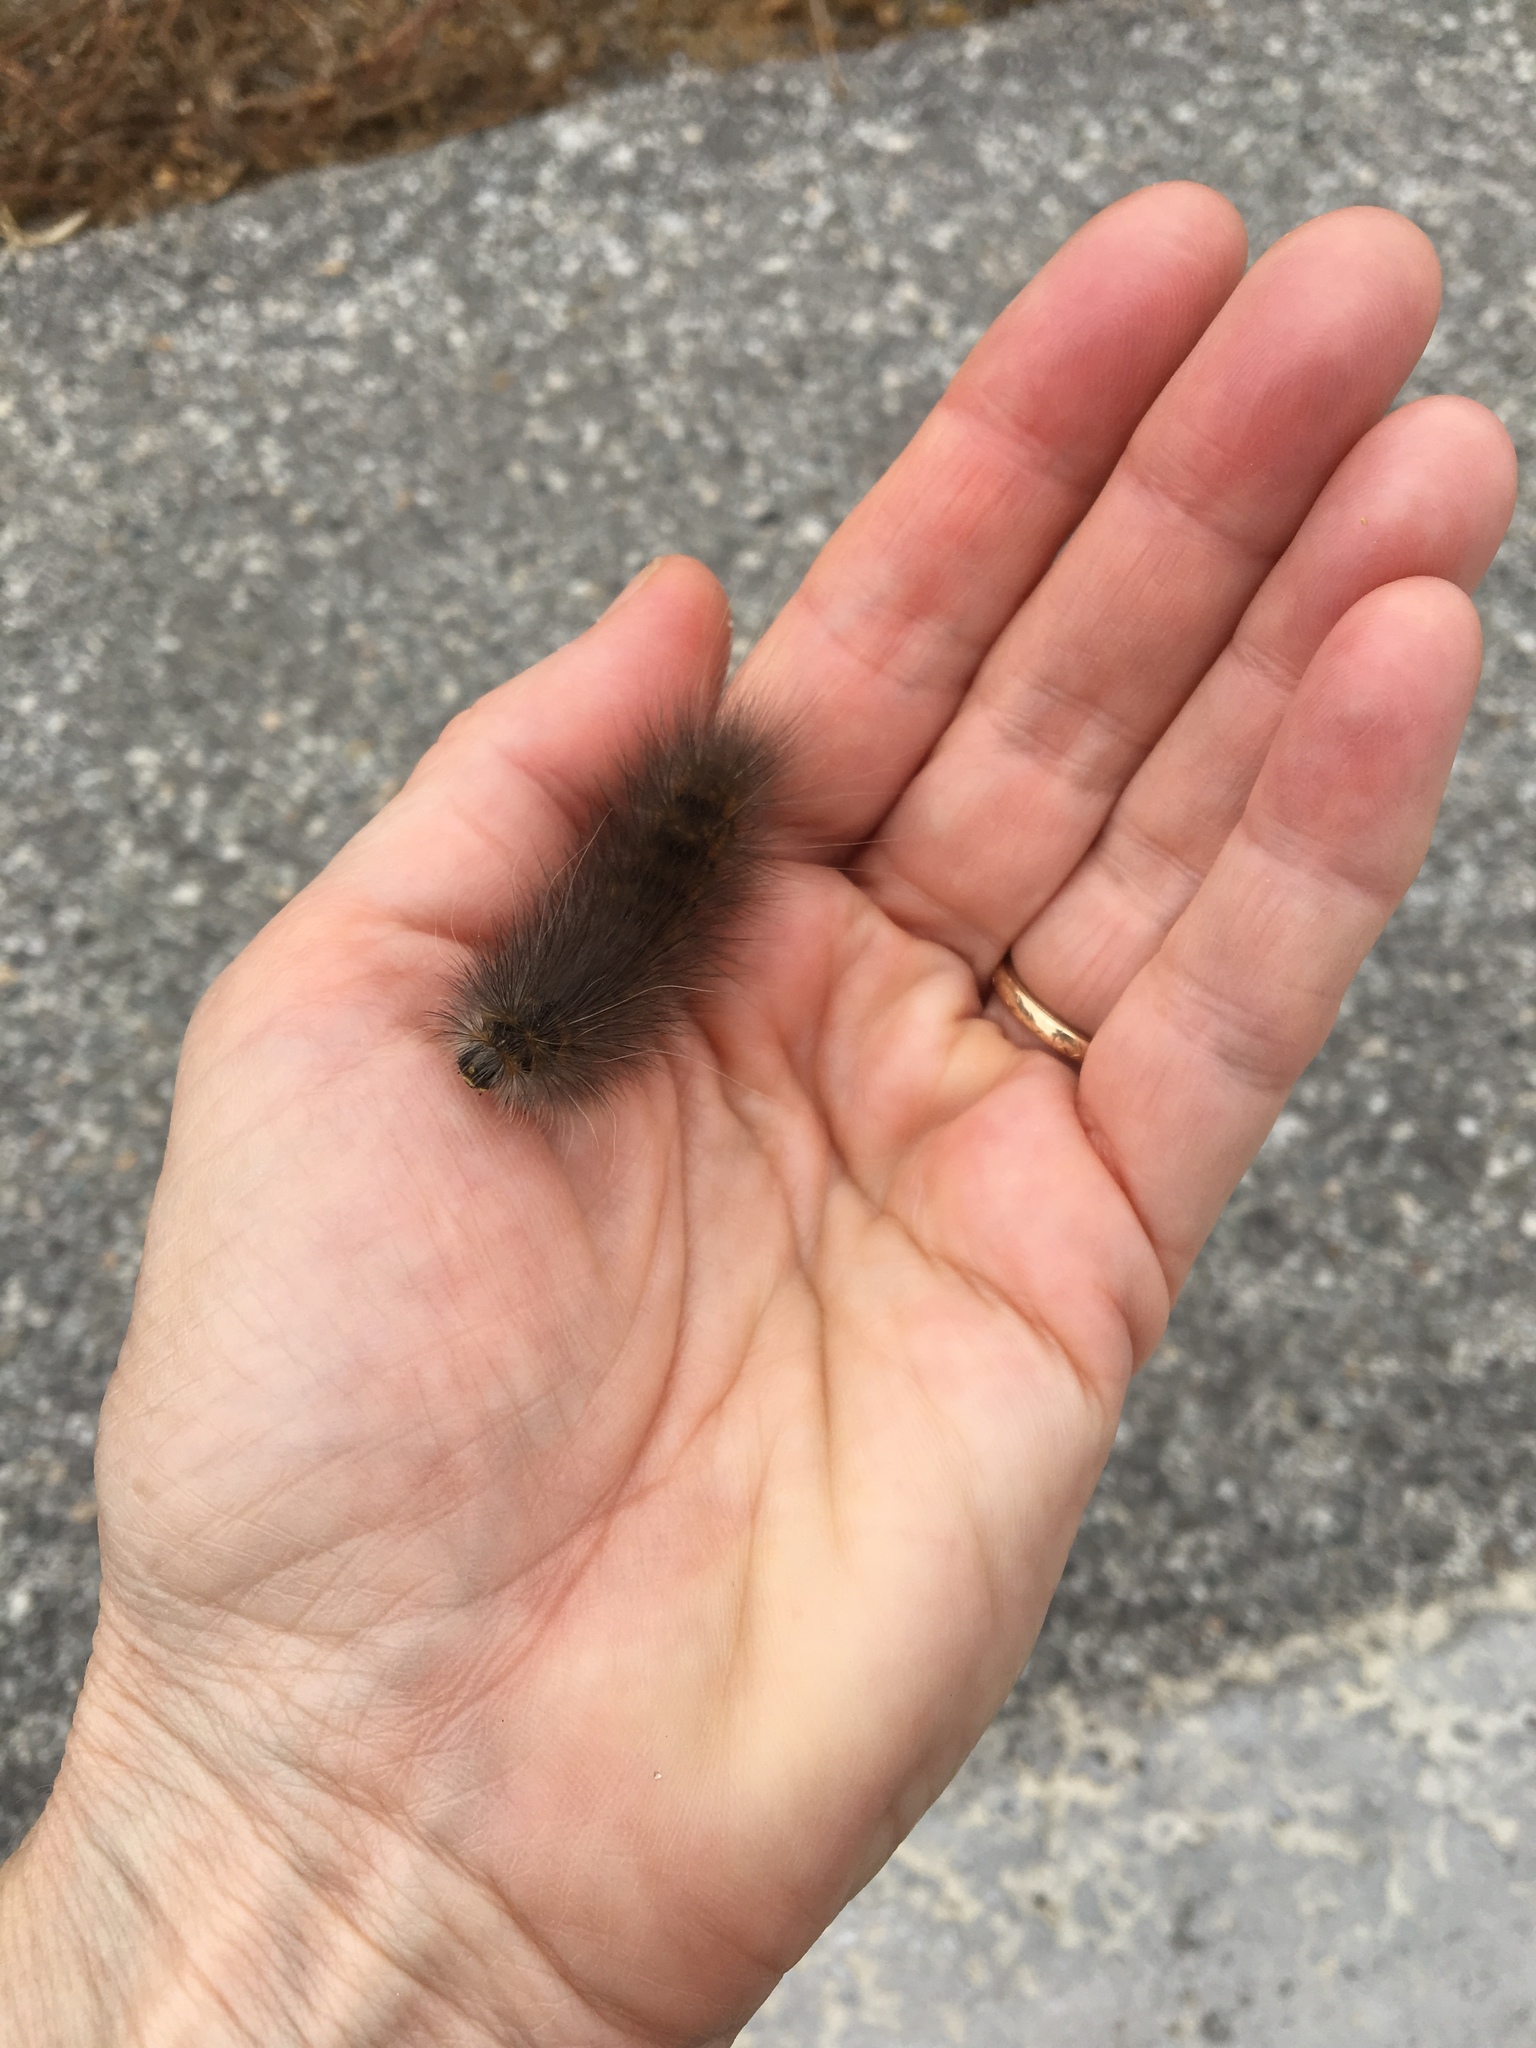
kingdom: Animalia
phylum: Arthropoda
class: Insecta
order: Lepidoptera
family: Erebidae
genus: Estigmene
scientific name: Estigmene acrea
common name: Salt marsh moth
